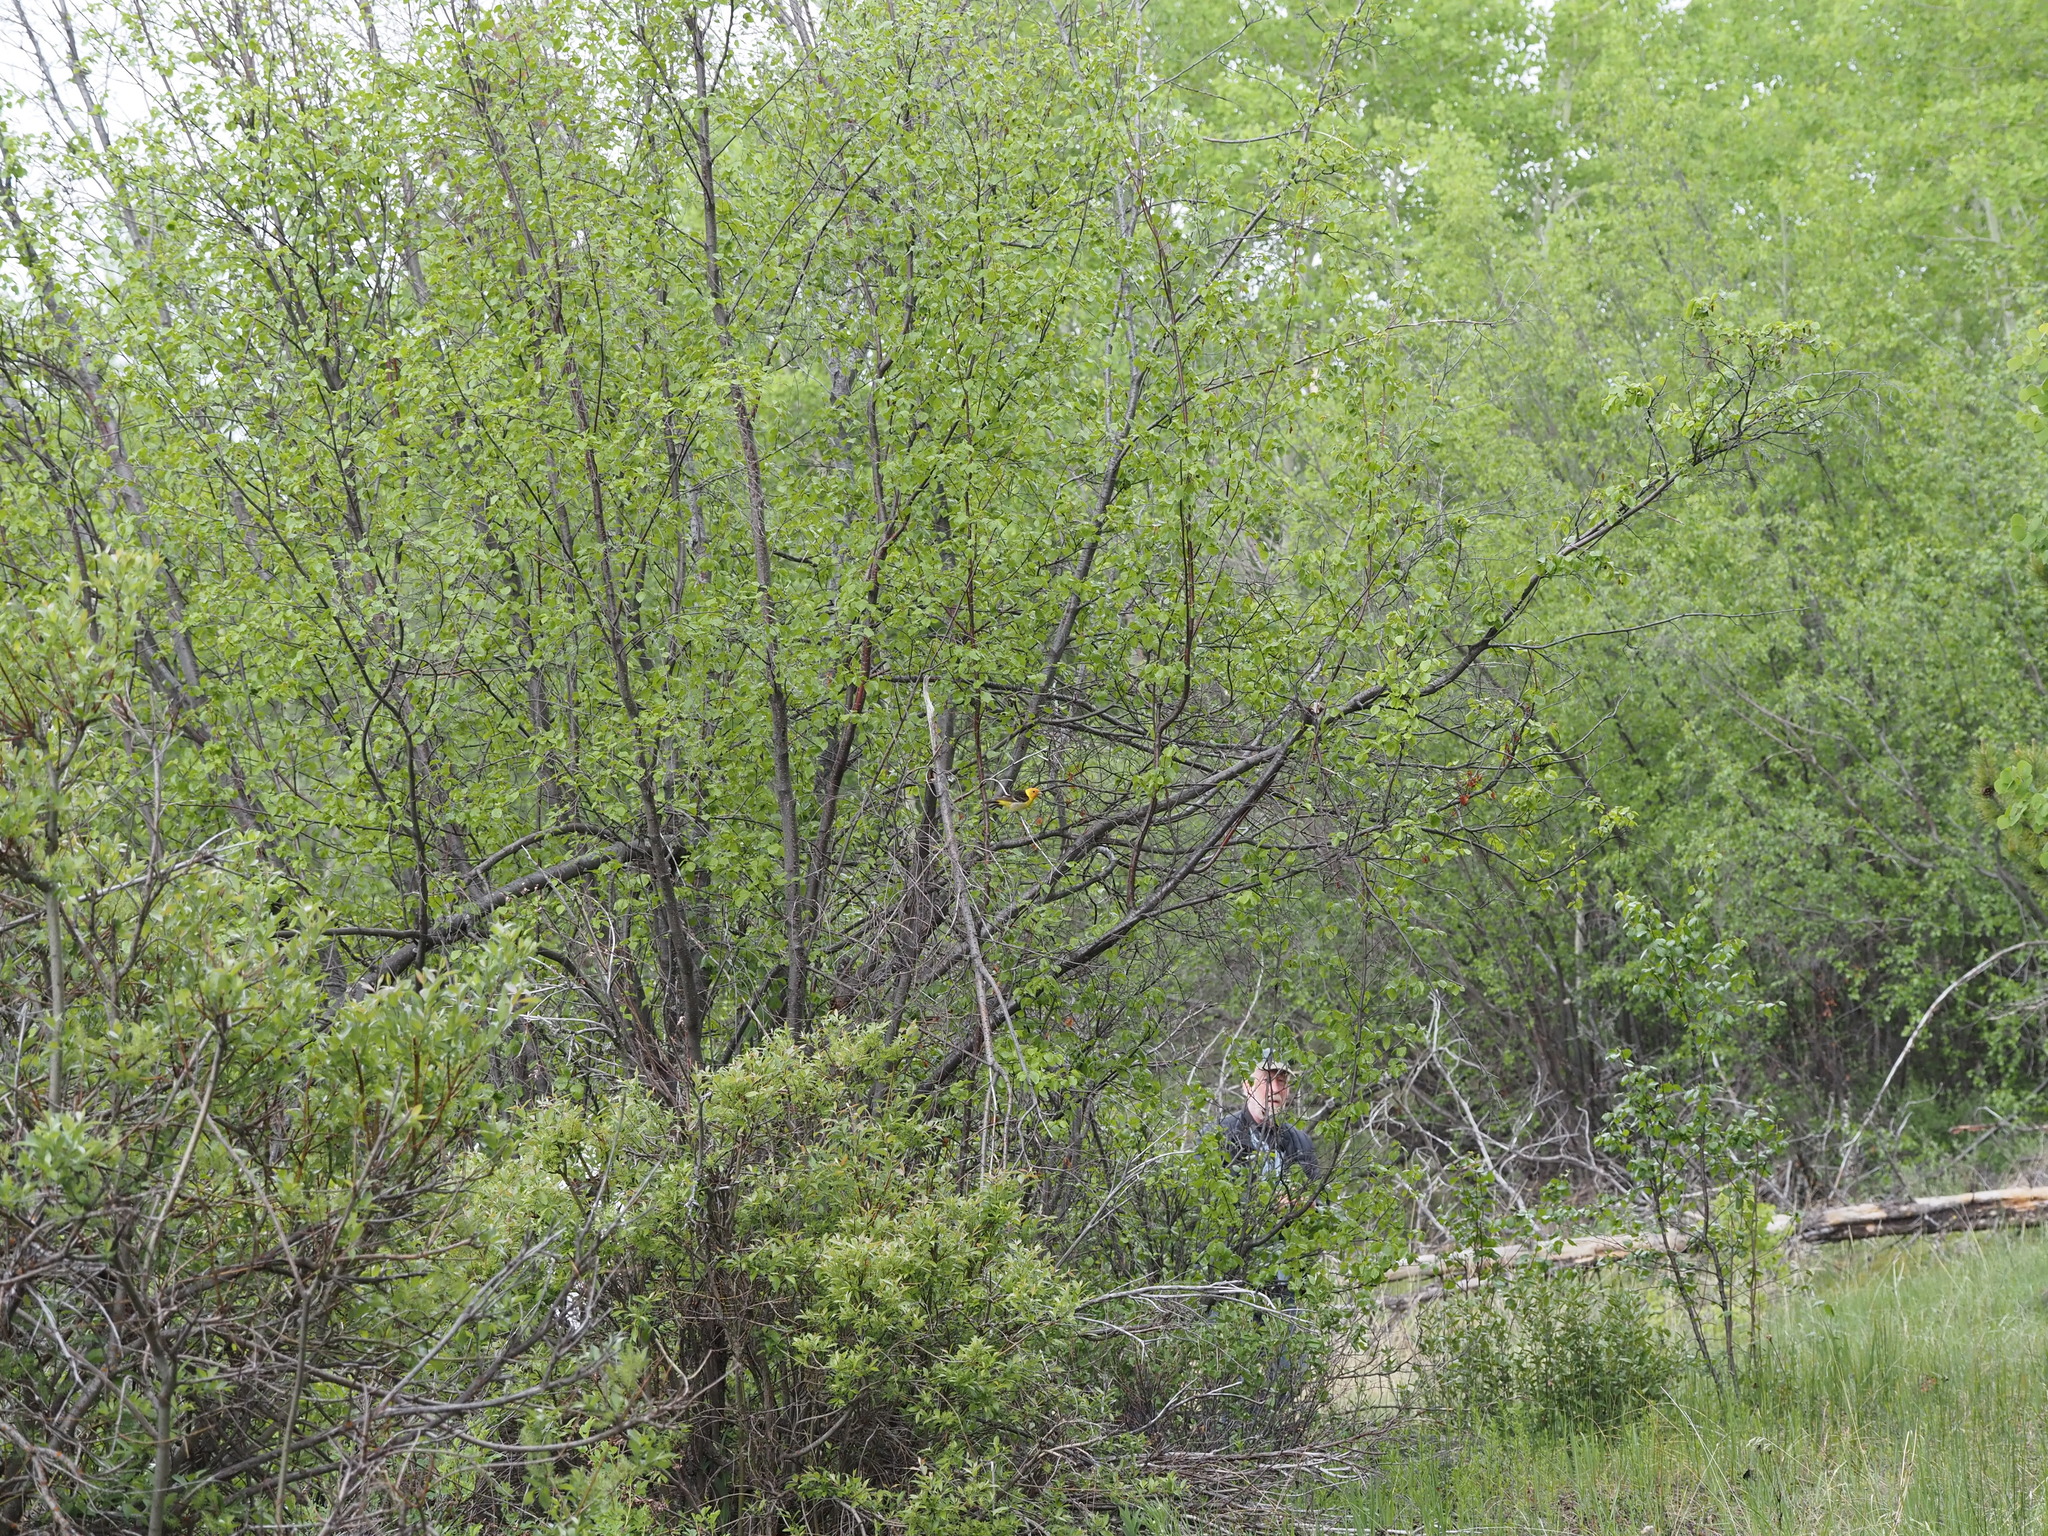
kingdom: Animalia
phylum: Chordata
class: Aves
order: Passeriformes
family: Cardinalidae
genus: Piranga
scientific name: Piranga ludoviciana
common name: Western tanager
